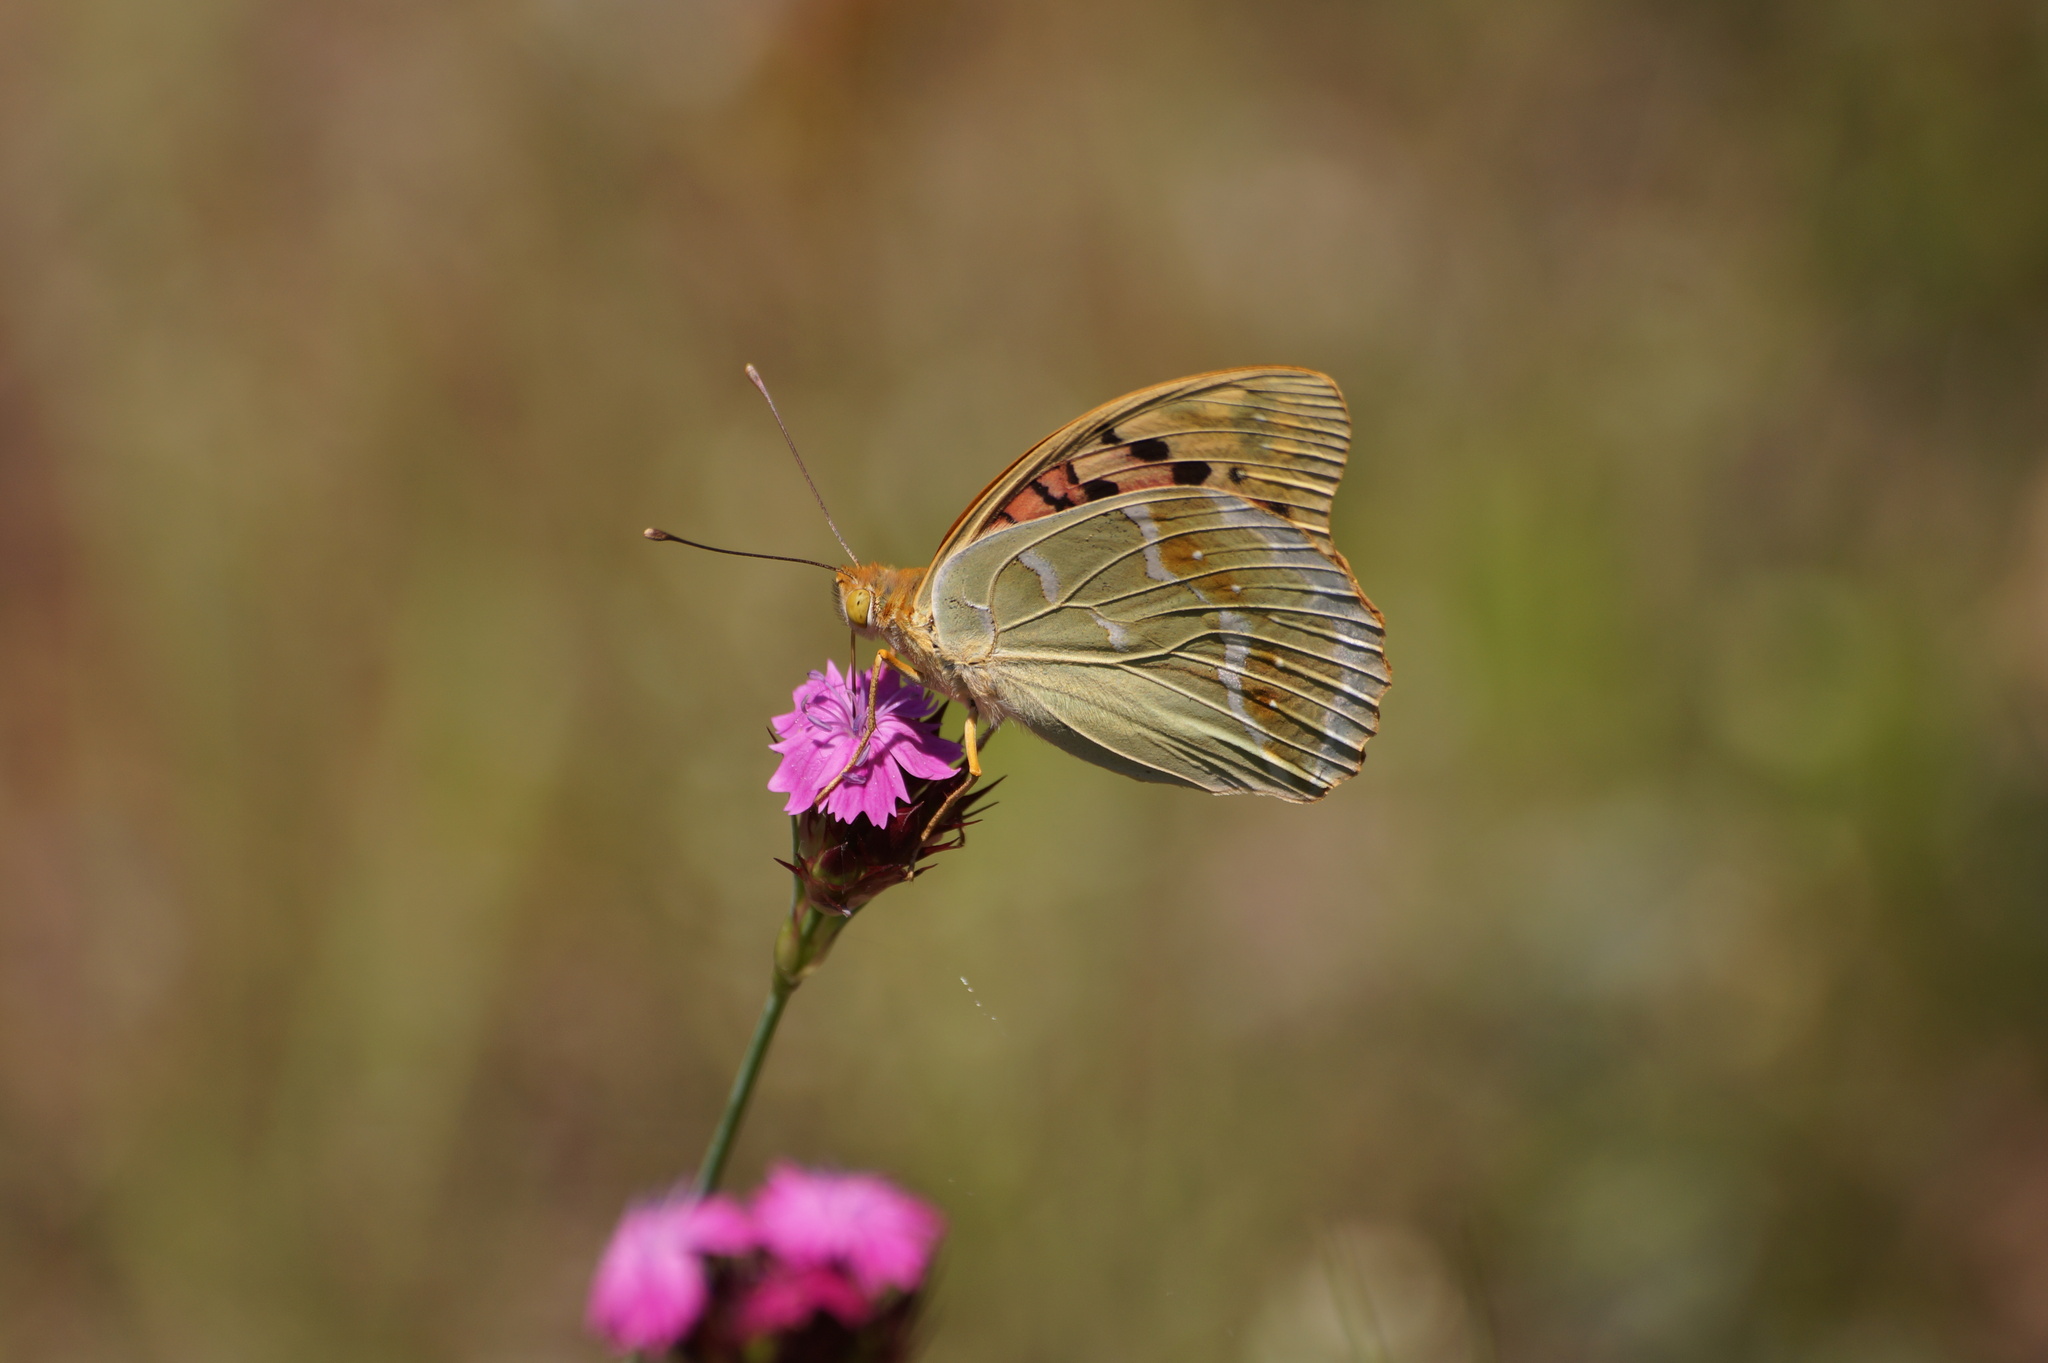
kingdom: Animalia
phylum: Arthropoda
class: Insecta
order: Lepidoptera
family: Nymphalidae
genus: Damora
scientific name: Damora pandora
